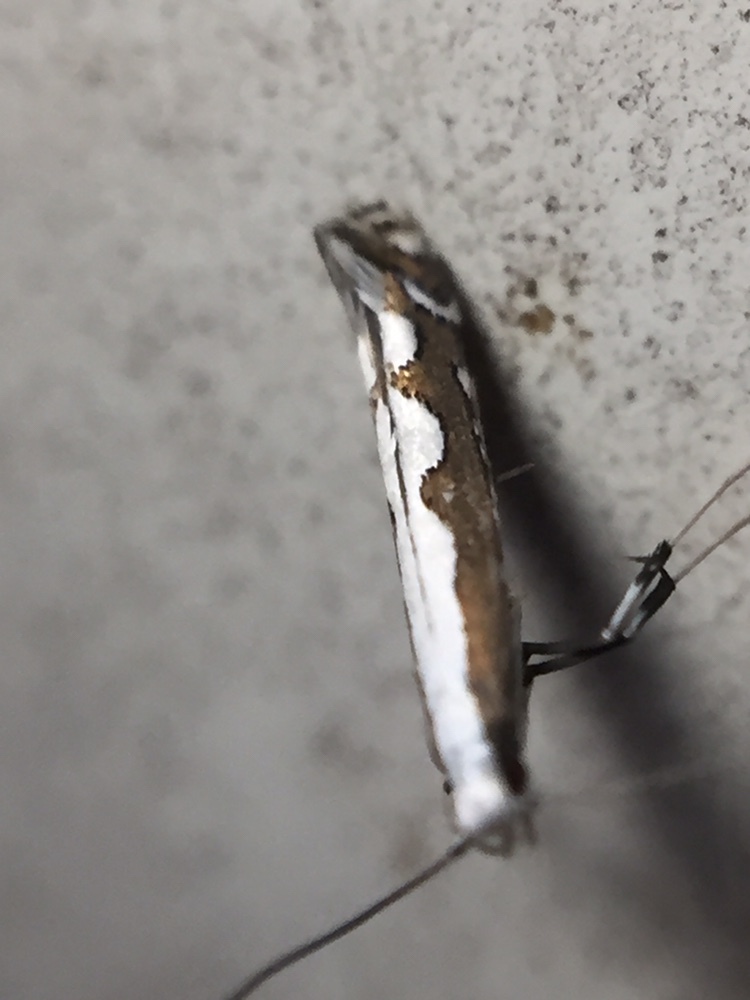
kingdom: Animalia
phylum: Arthropoda
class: Insecta
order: Lepidoptera
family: Gracillariidae
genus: Dialectica
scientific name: Dialectica scalariella
